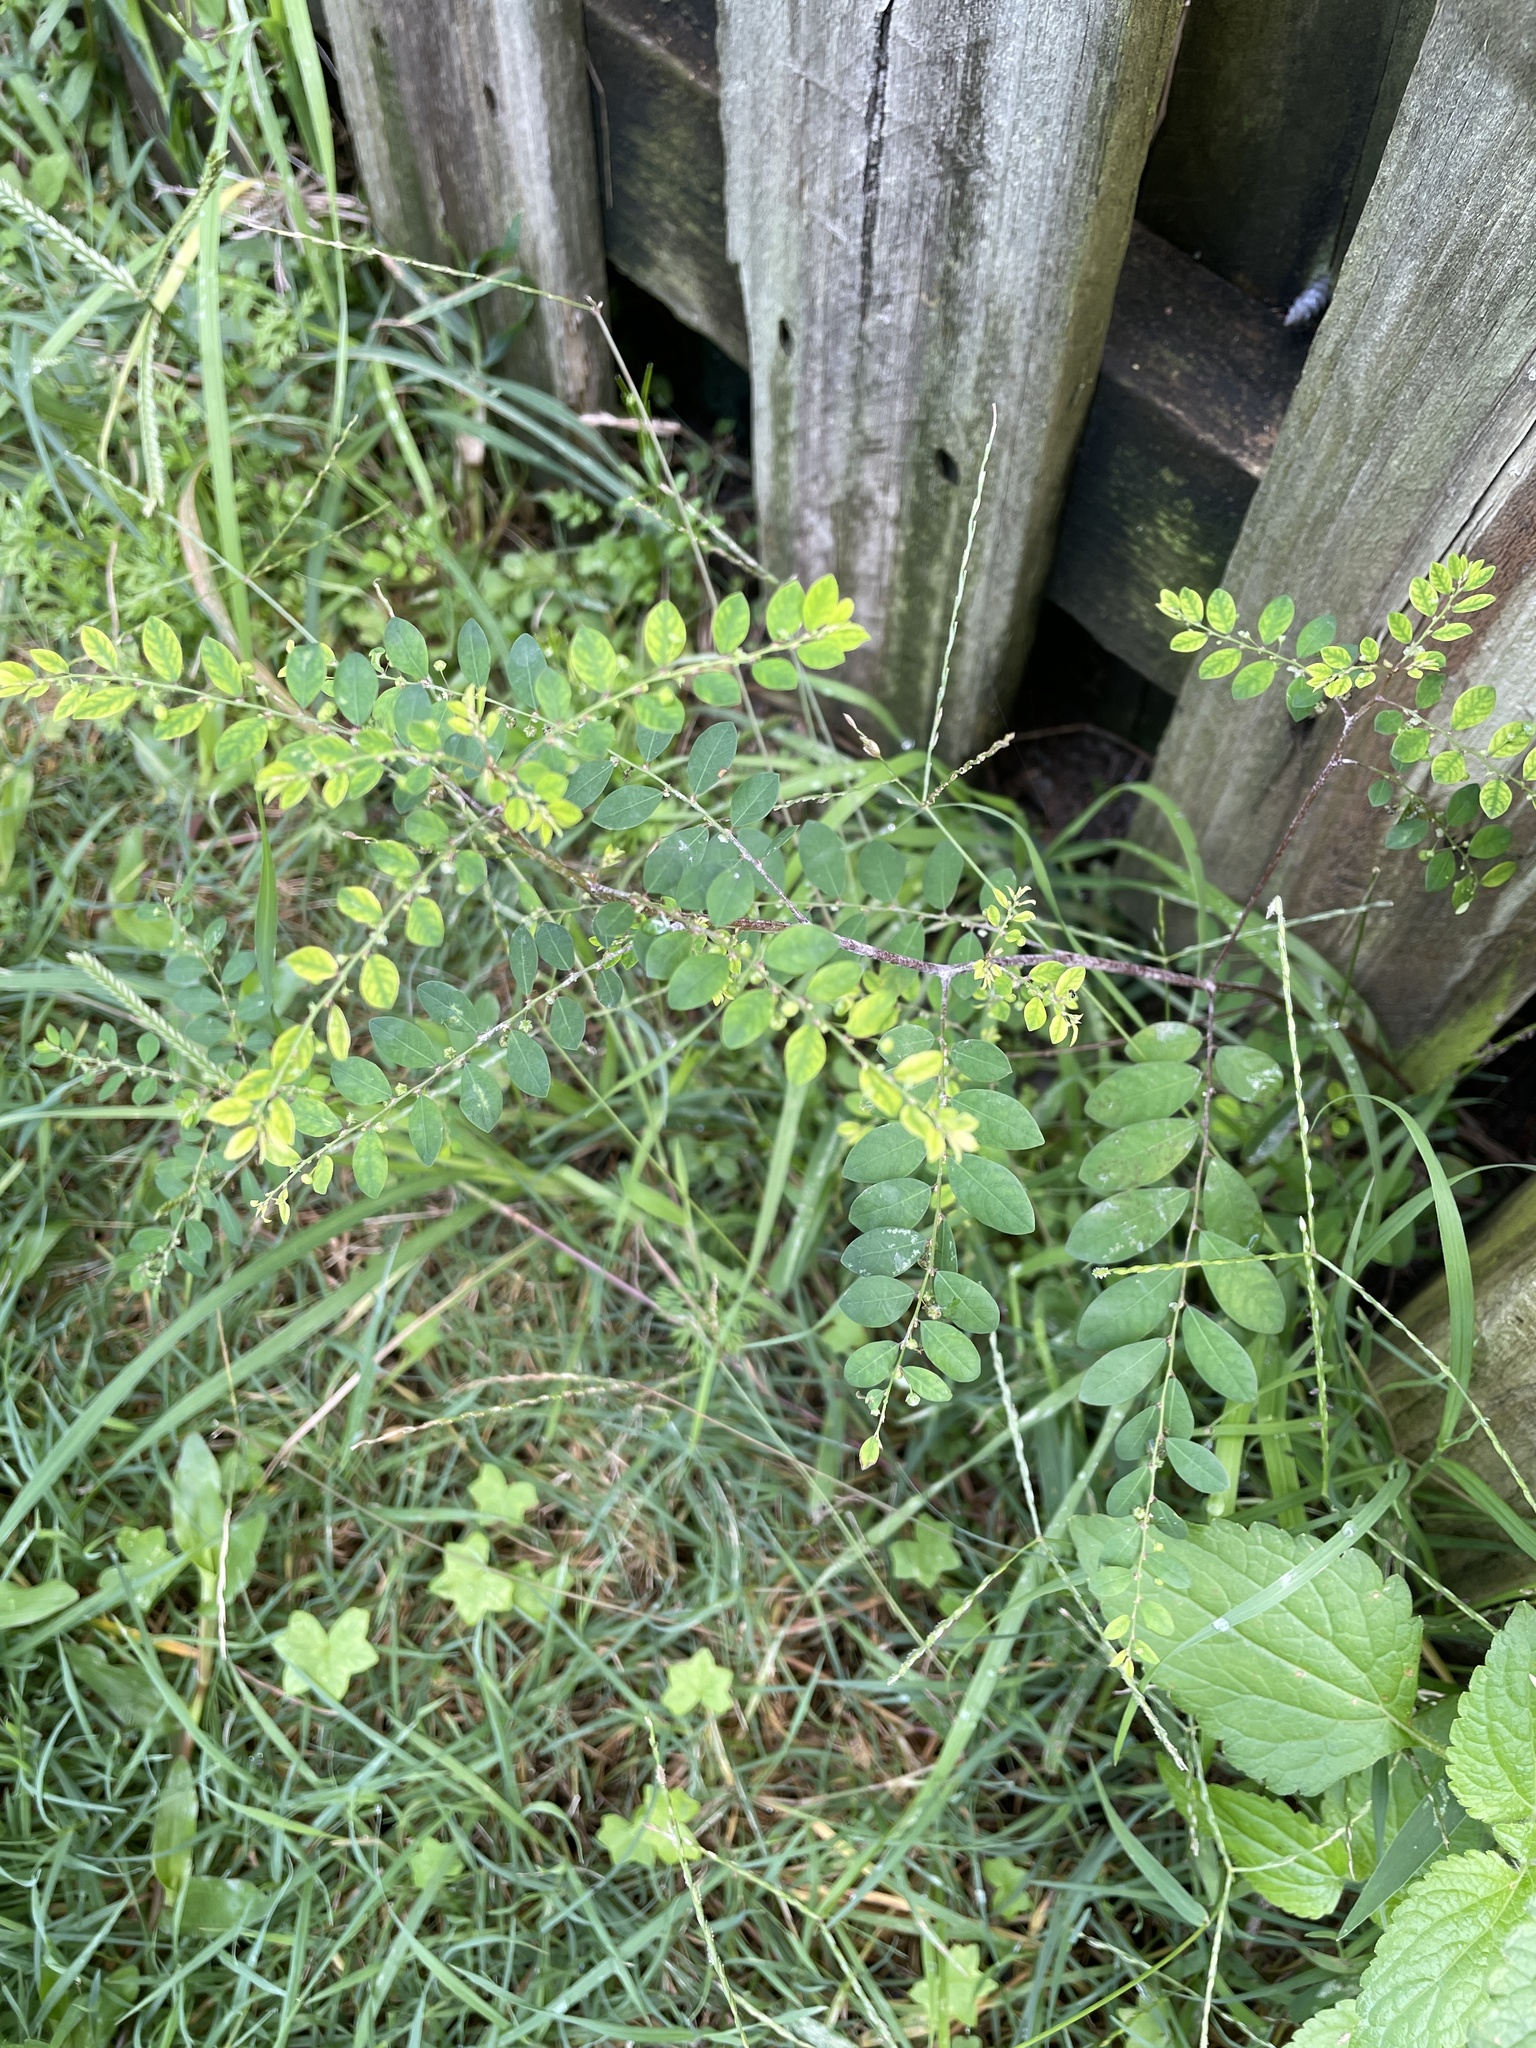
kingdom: Plantae
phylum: Tracheophyta
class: Magnoliopsida
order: Malpighiales
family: Phyllanthaceae
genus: Phyllanthus
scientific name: Phyllanthus tenellus
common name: Mascarene island leaf-flower
